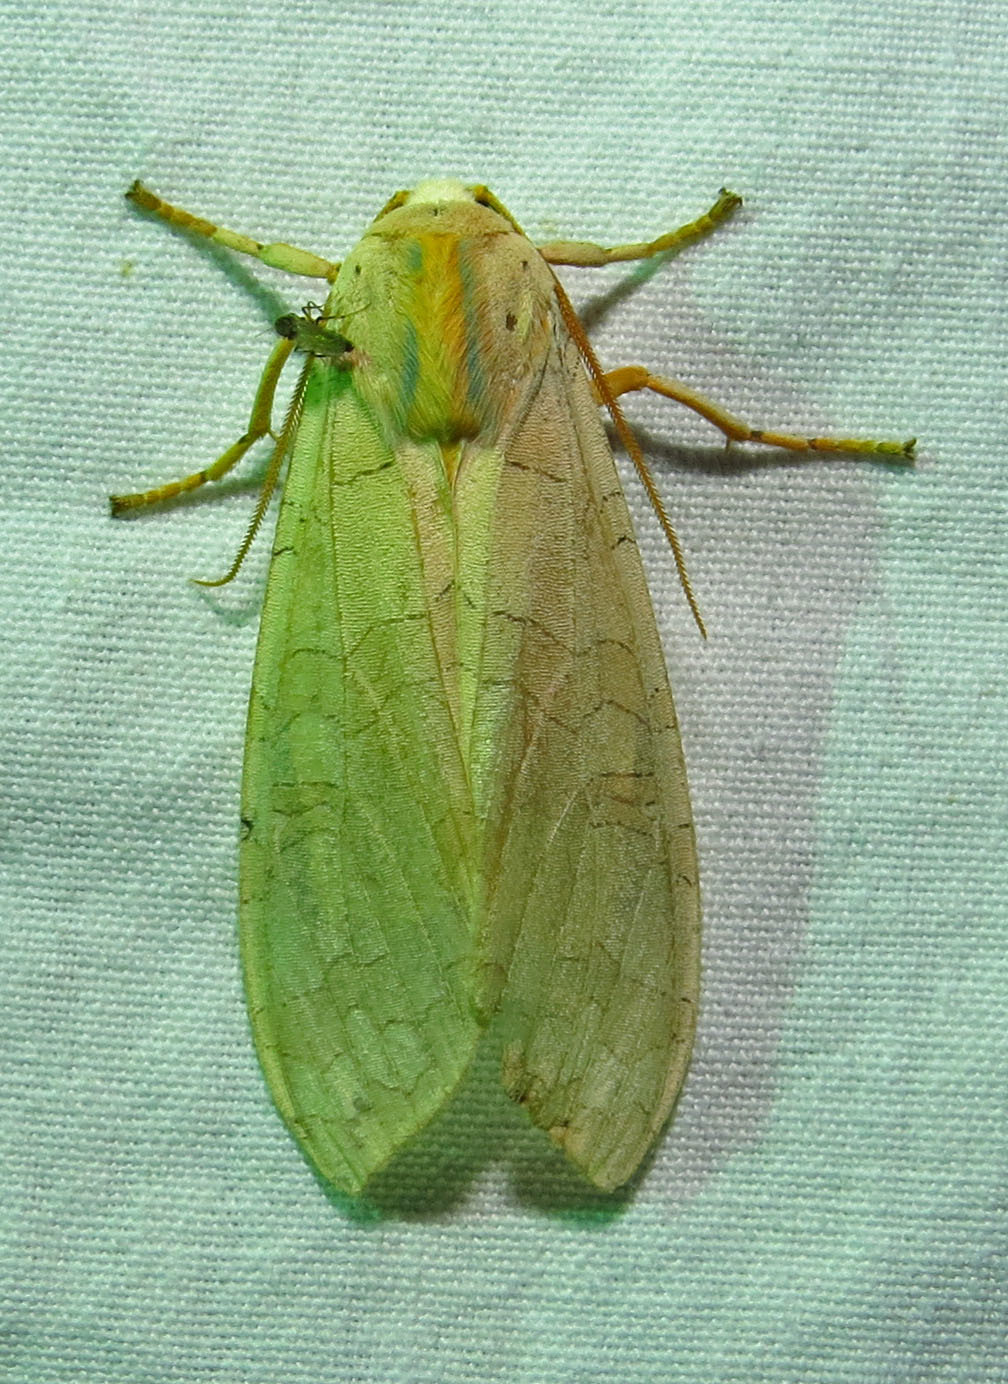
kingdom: Animalia
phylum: Arthropoda
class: Insecta
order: Lepidoptera
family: Erebidae
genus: Halysidota
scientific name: Halysidota
